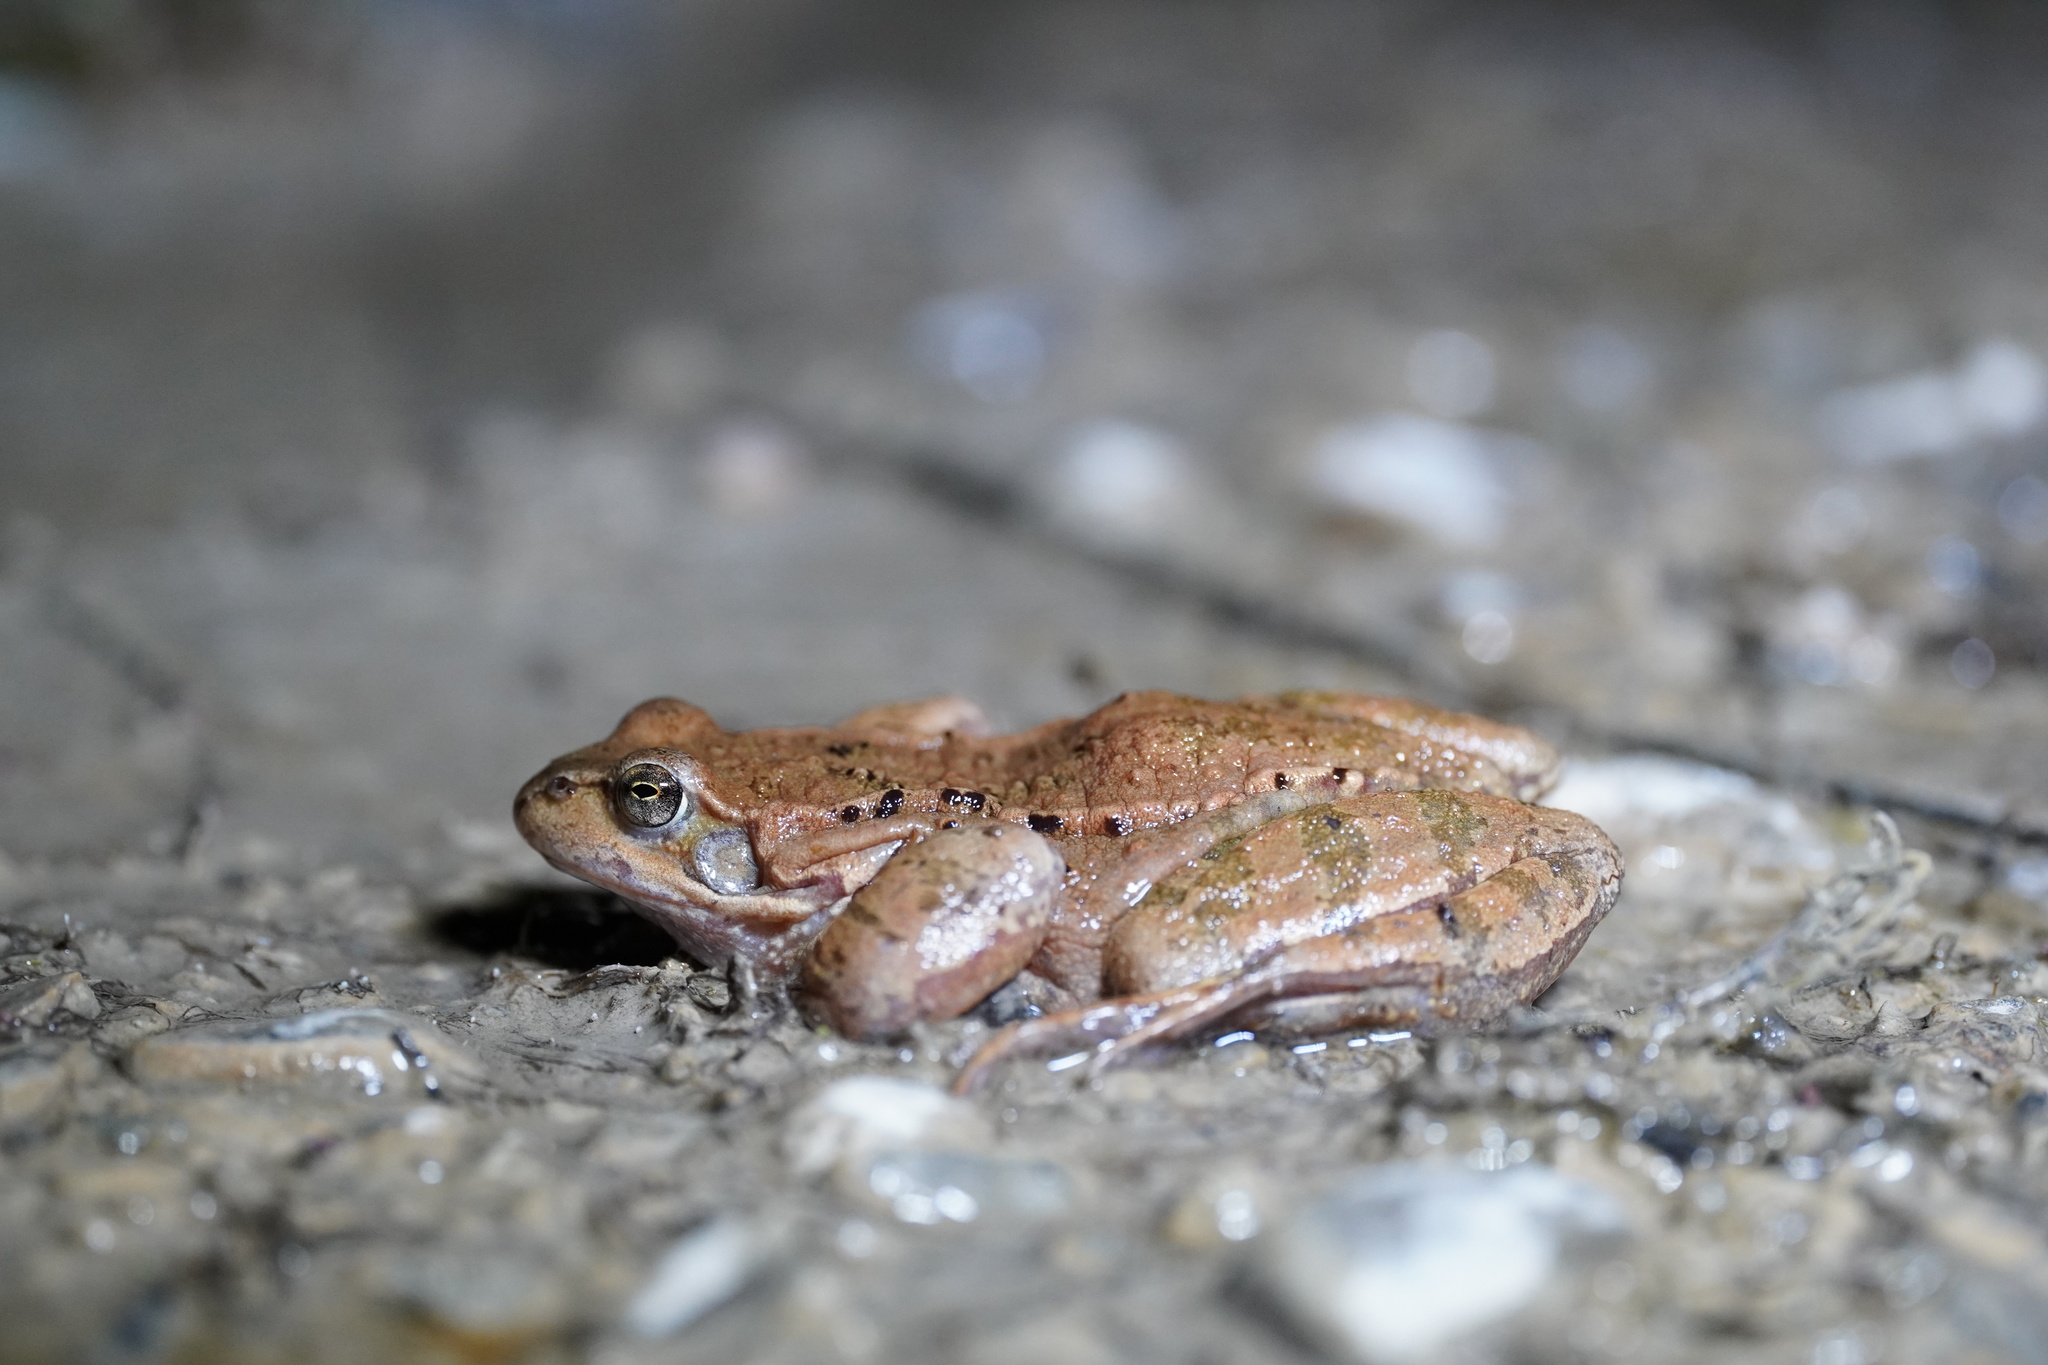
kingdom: Animalia
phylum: Chordata
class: Amphibia
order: Anura
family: Ranidae
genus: Rana
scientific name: Rana temporaria
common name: Common frog
